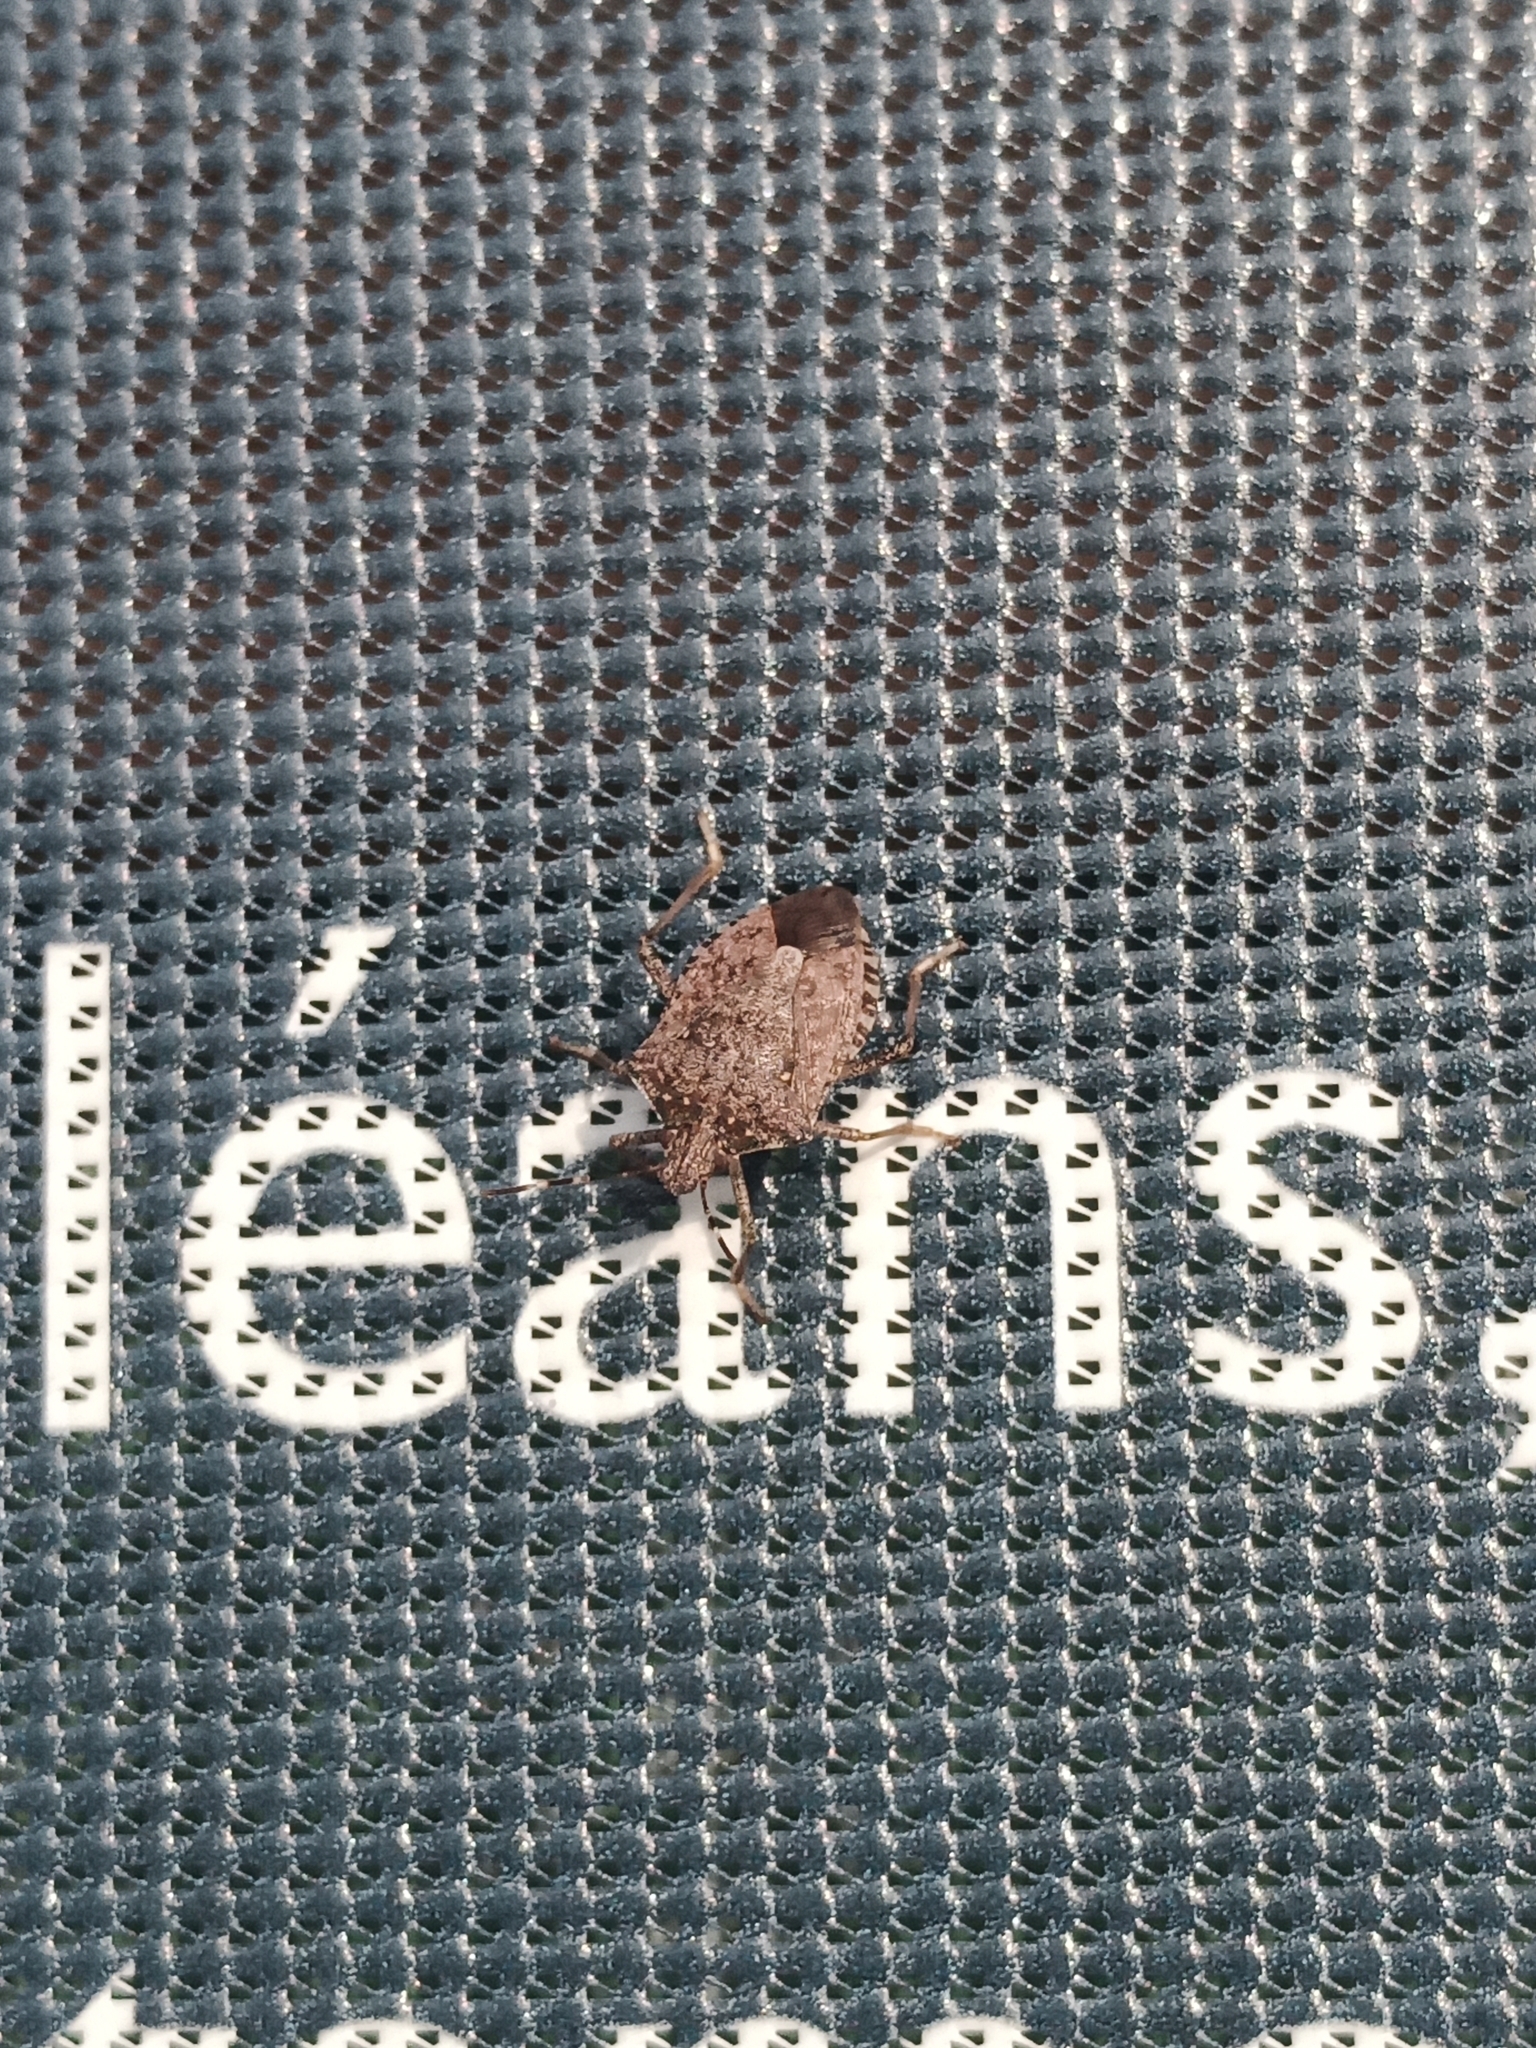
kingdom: Animalia
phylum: Arthropoda
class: Insecta
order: Hemiptera
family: Pentatomidae
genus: Halyomorpha
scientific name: Halyomorpha halys
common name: Brown marmorated stink bug
